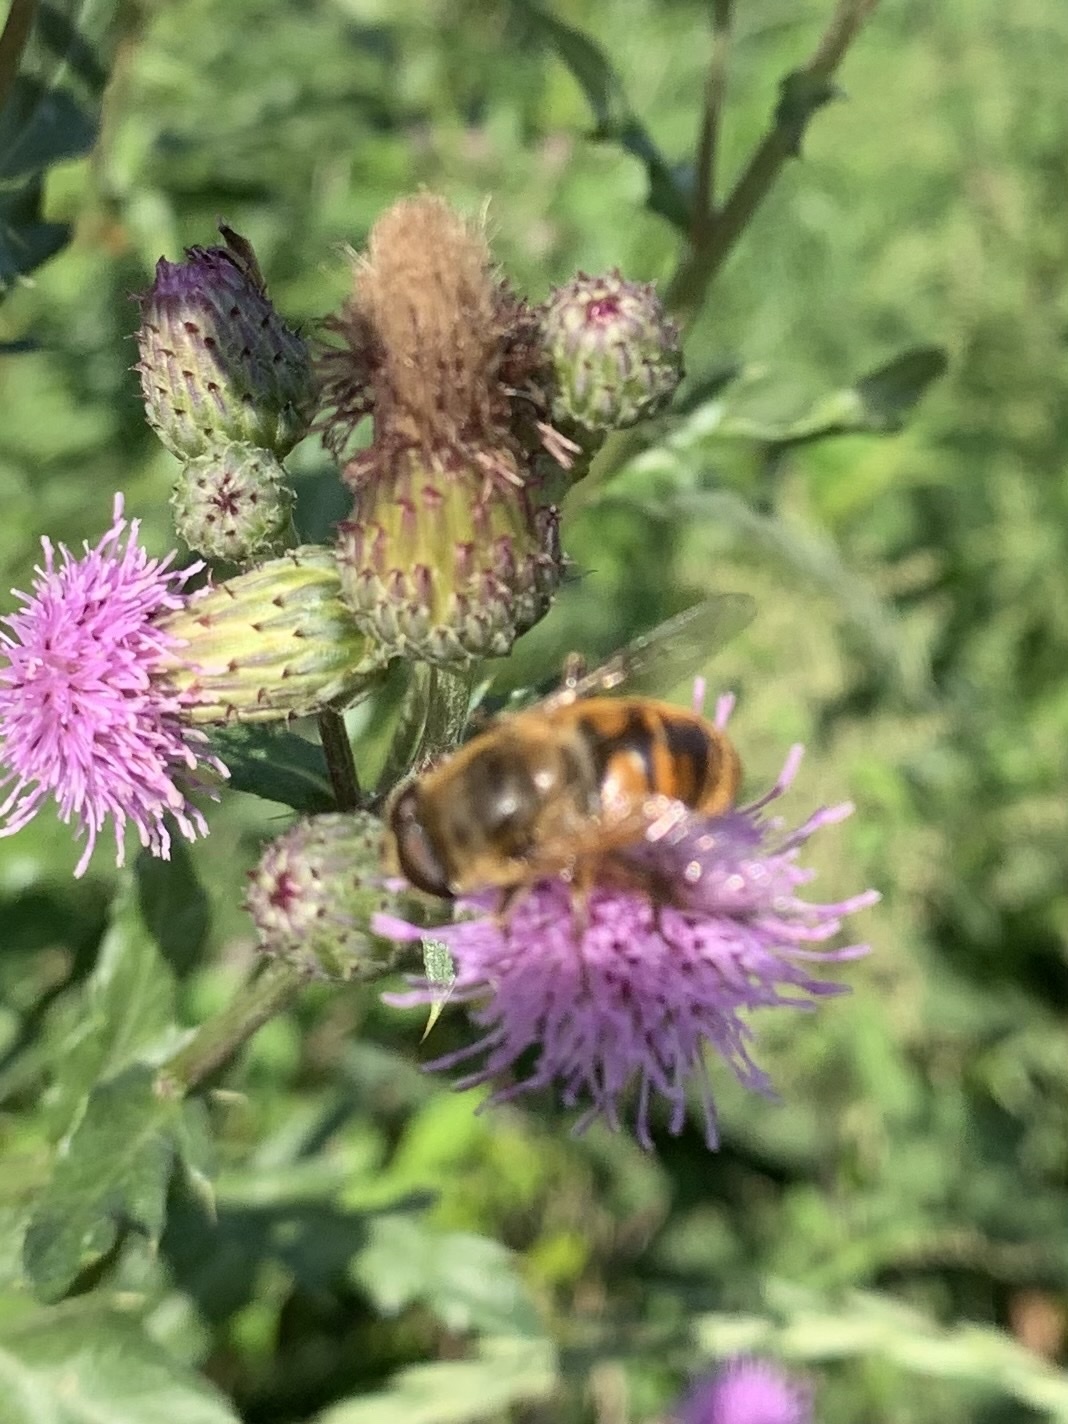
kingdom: Animalia
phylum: Arthropoda
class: Insecta
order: Diptera
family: Syrphidae
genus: Eristalis
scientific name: Eristalis tenax
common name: Drone fly
